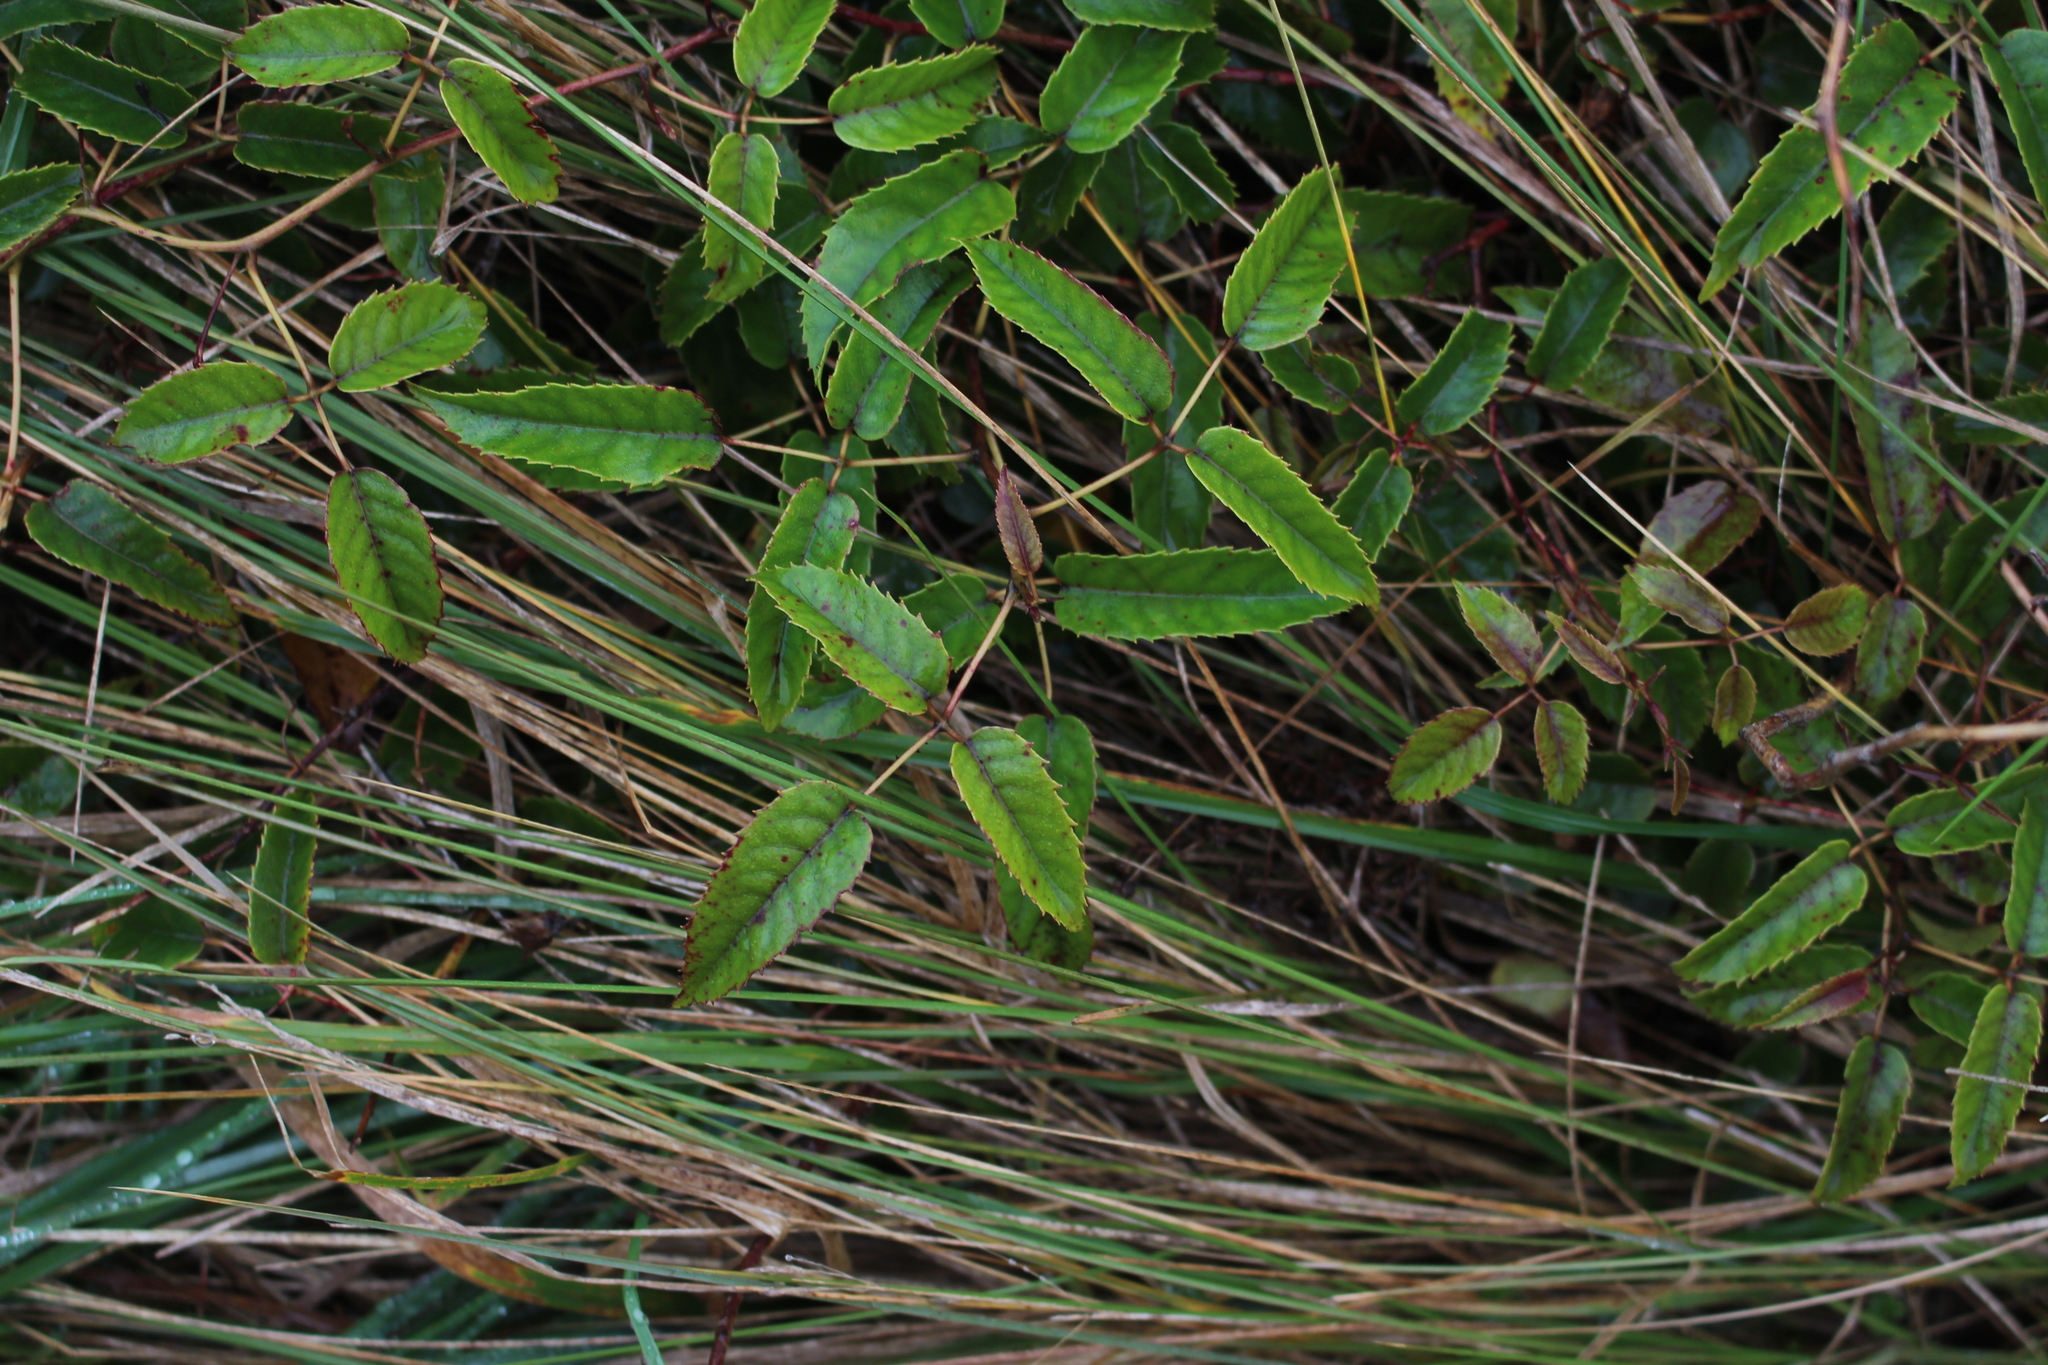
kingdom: Plantae
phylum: Tracheophyta
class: Magnoliopsida
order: Rosales
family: Rosaceae
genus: Rubus
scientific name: Rubus schmidelioides
